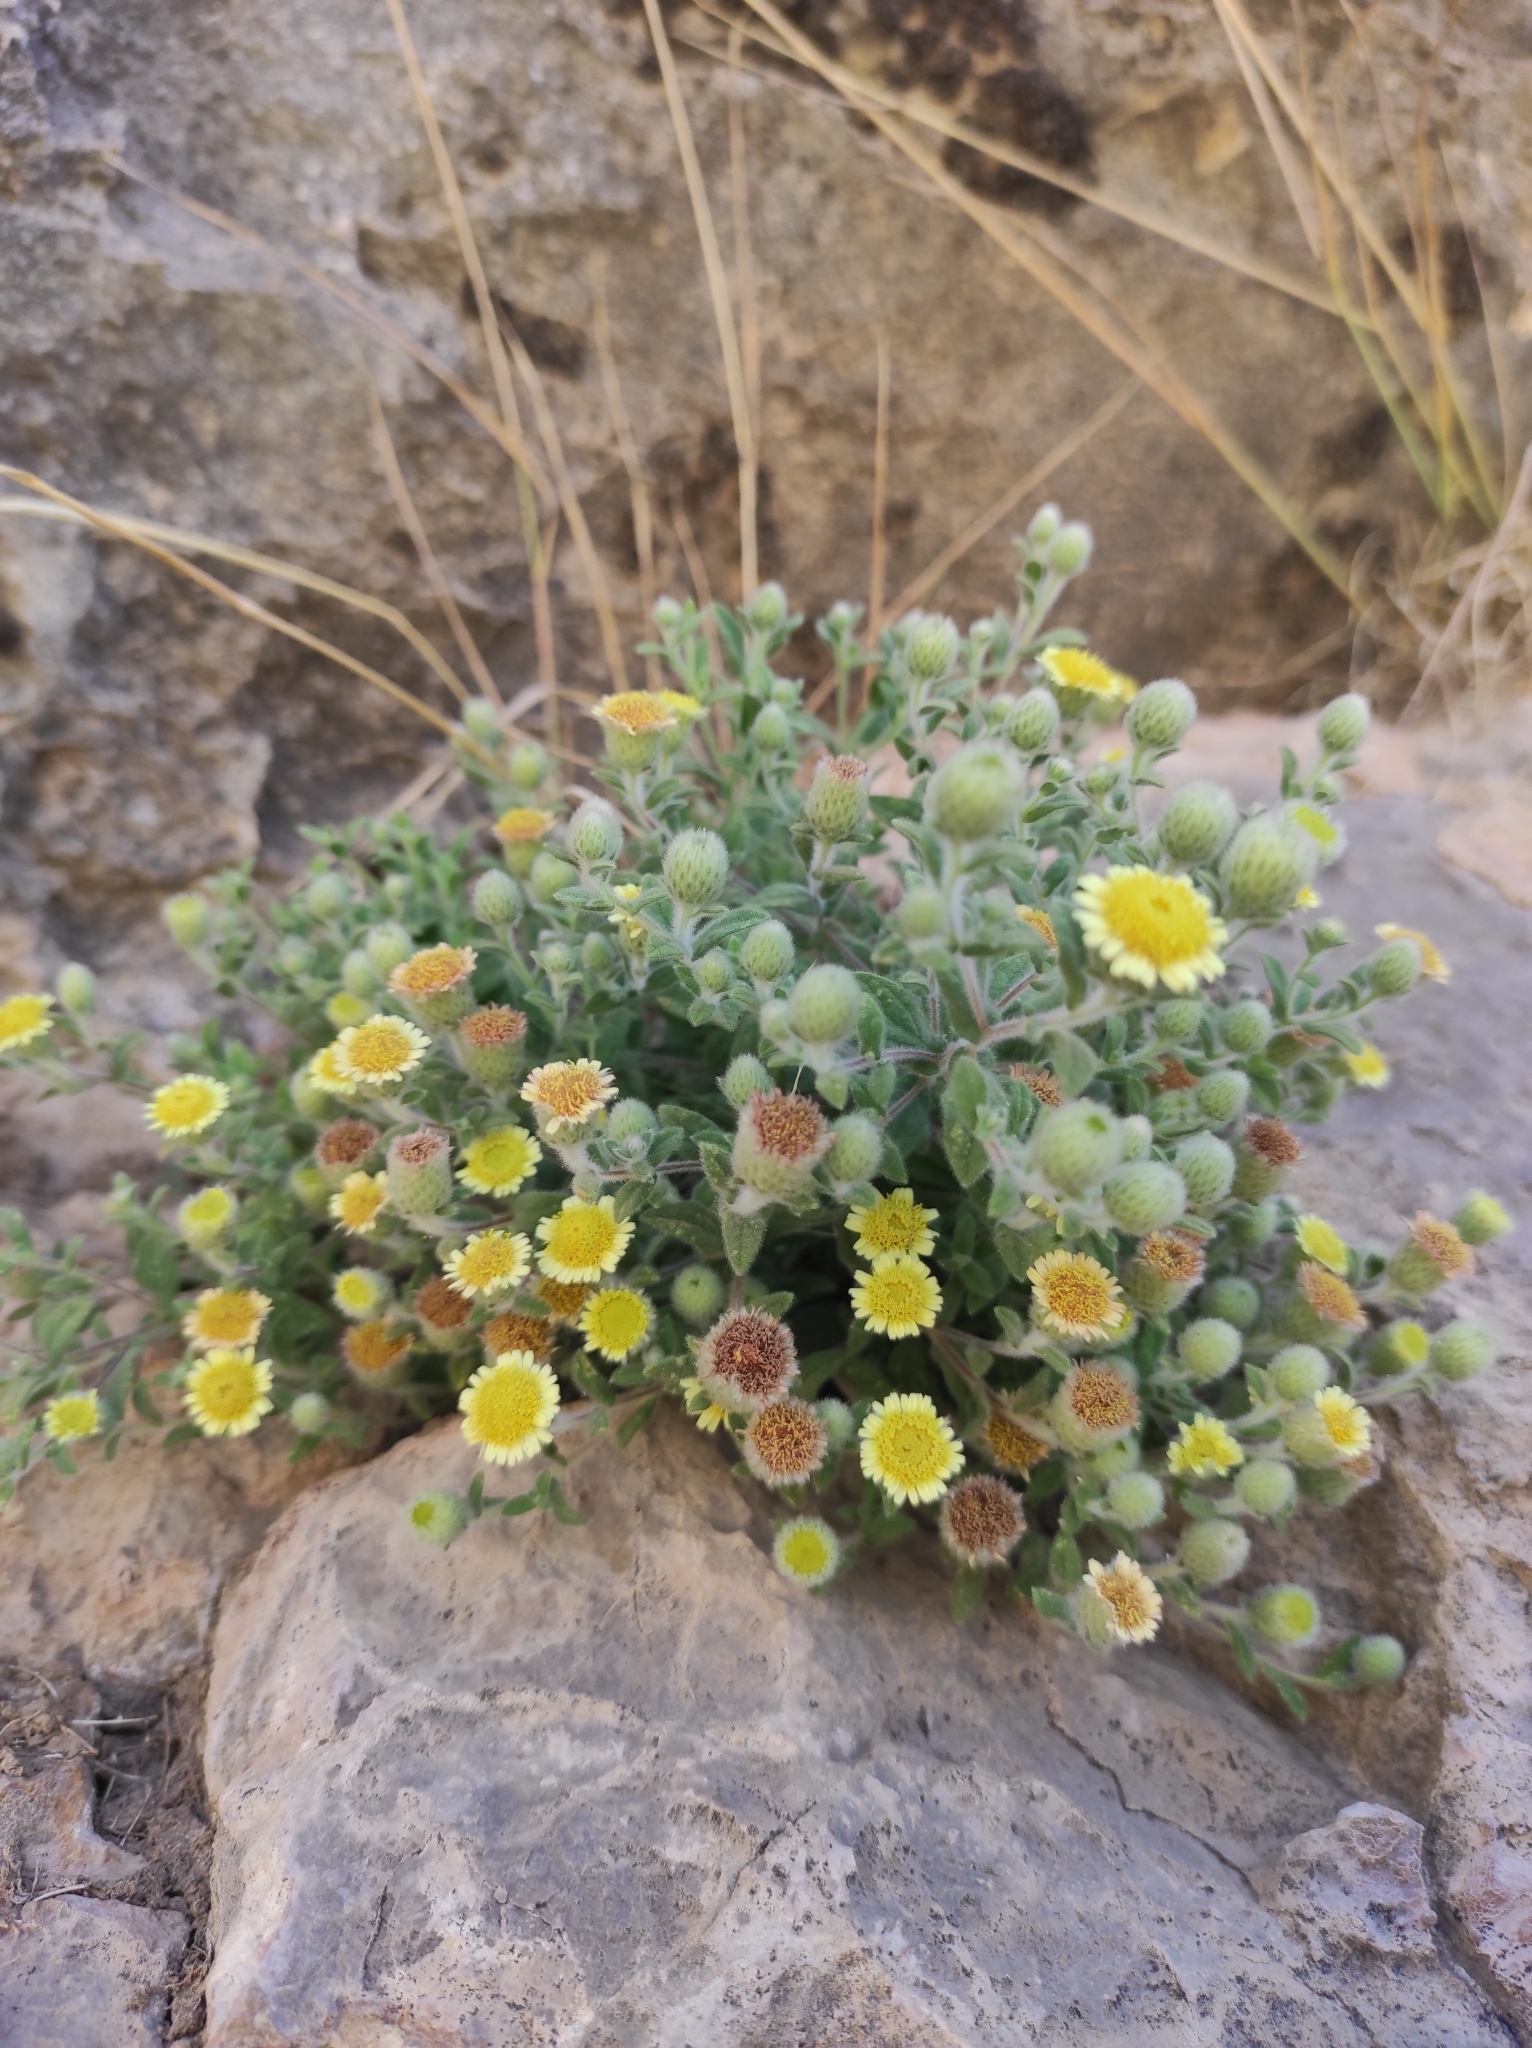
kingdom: Plantae
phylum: Tracheophyta
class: Magnoliopsida
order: Asterales
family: Asteraceae
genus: Pulicaria
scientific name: Pulicaria vulgaris
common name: Small fleabane
